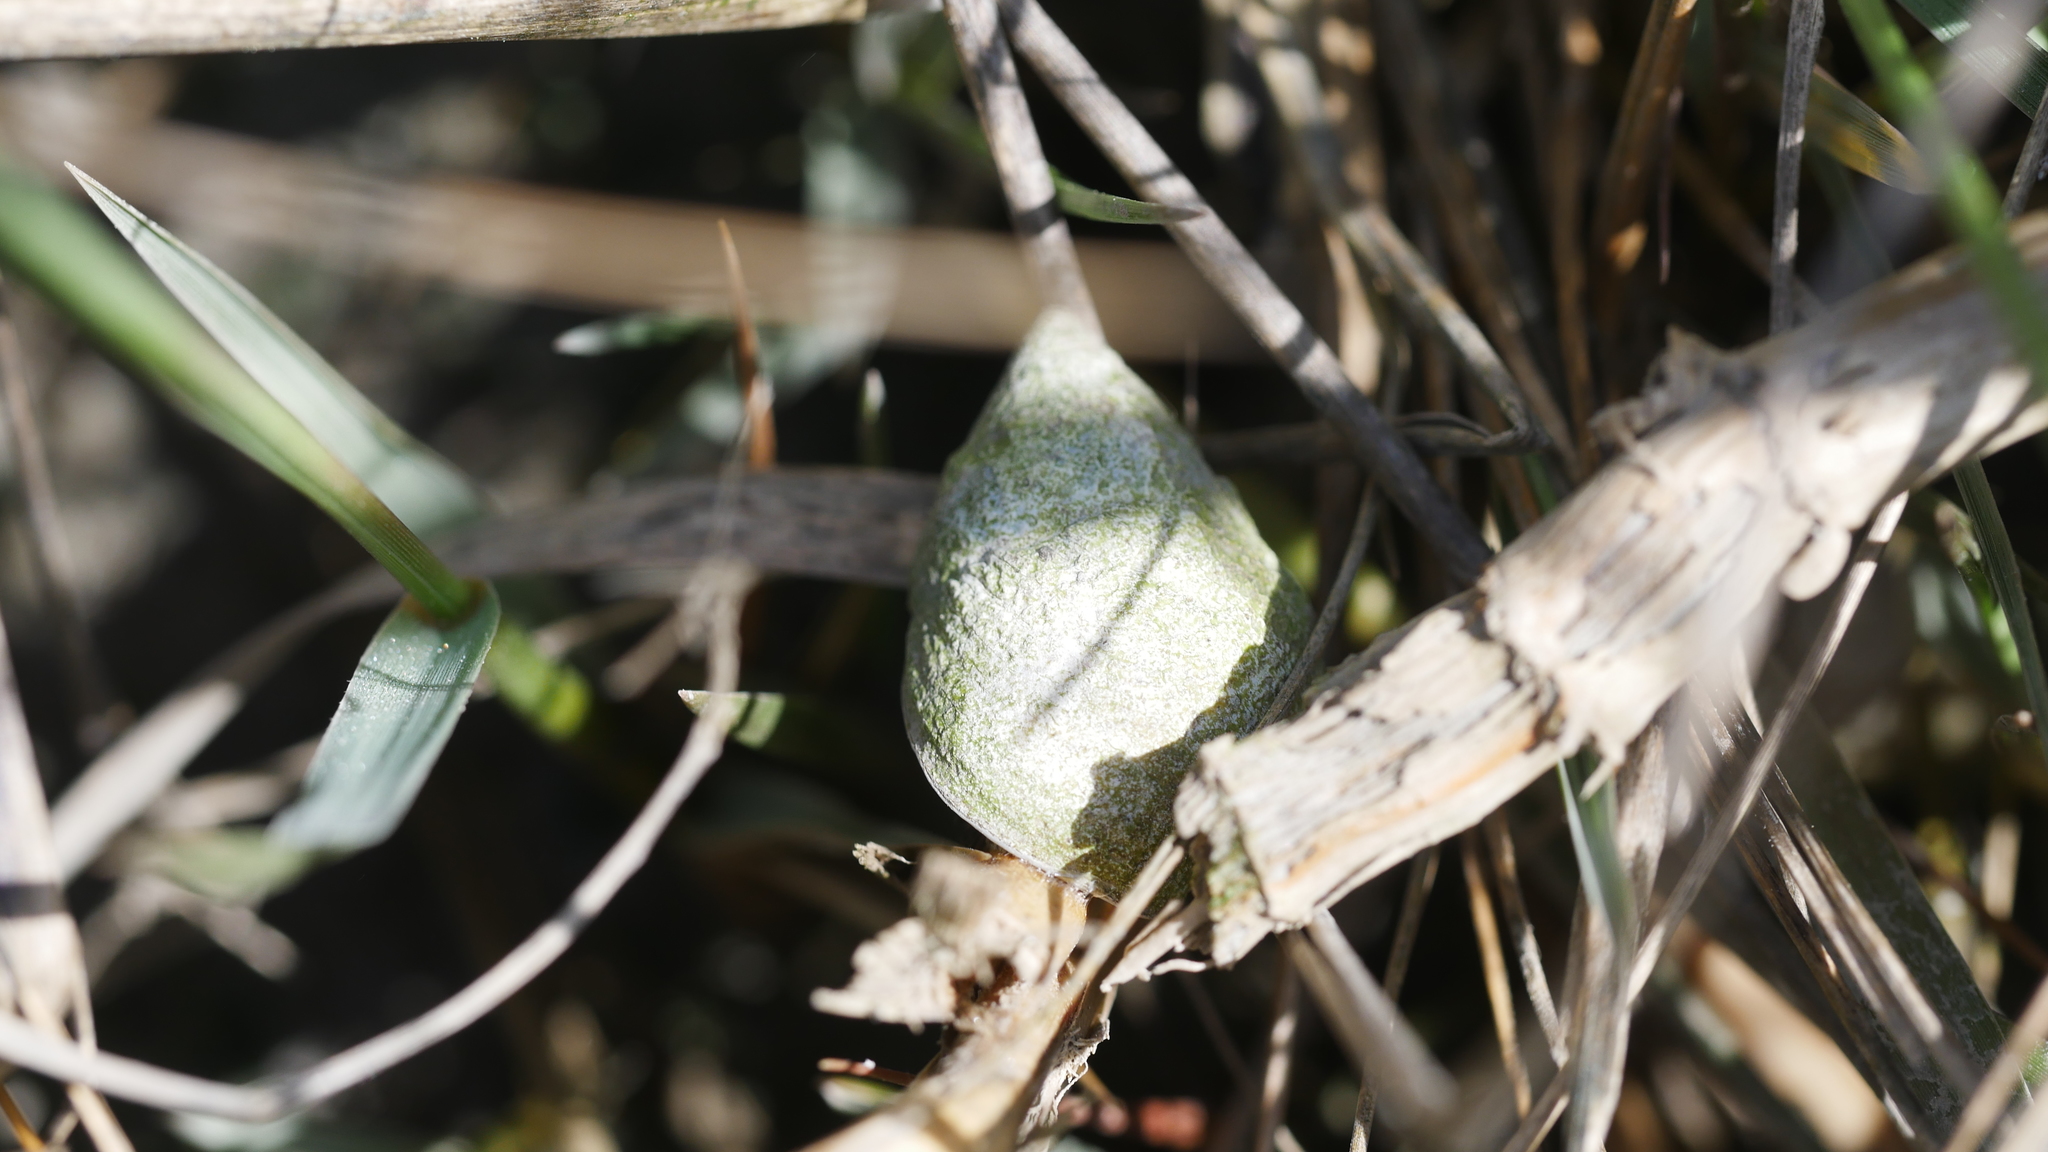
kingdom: Animalia
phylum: Mollusca
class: Gastropoda
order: Littorinimorpha
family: Littorinidae
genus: Littoraria
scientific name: Littoraria irrorata
